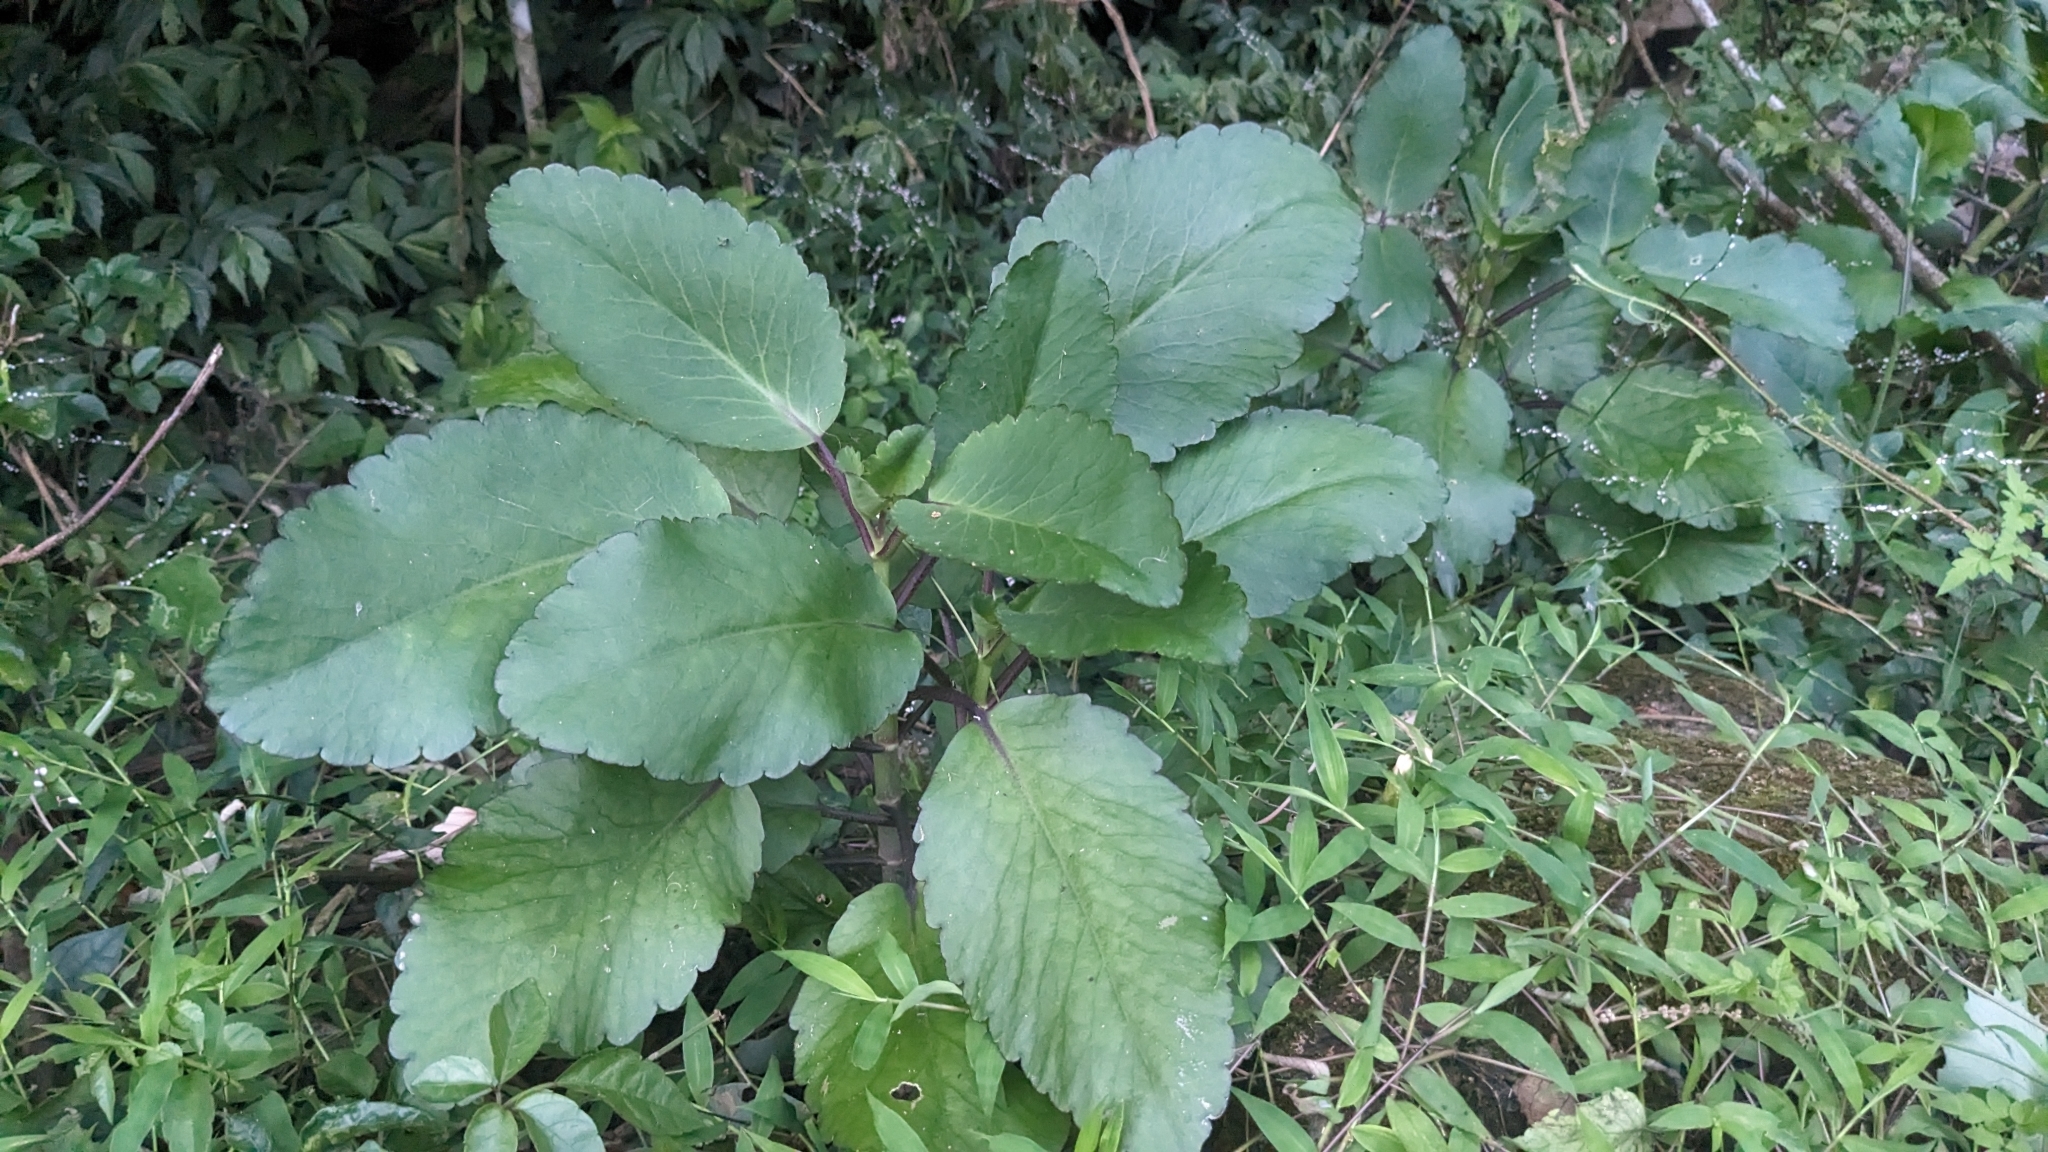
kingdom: Plantae
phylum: Tracheophyta
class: Magnoliopsida
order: Saxifragales
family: Crassulaceae
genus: Kalanchoe
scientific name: Kalanchoe pinnata
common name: Cathedral bells
